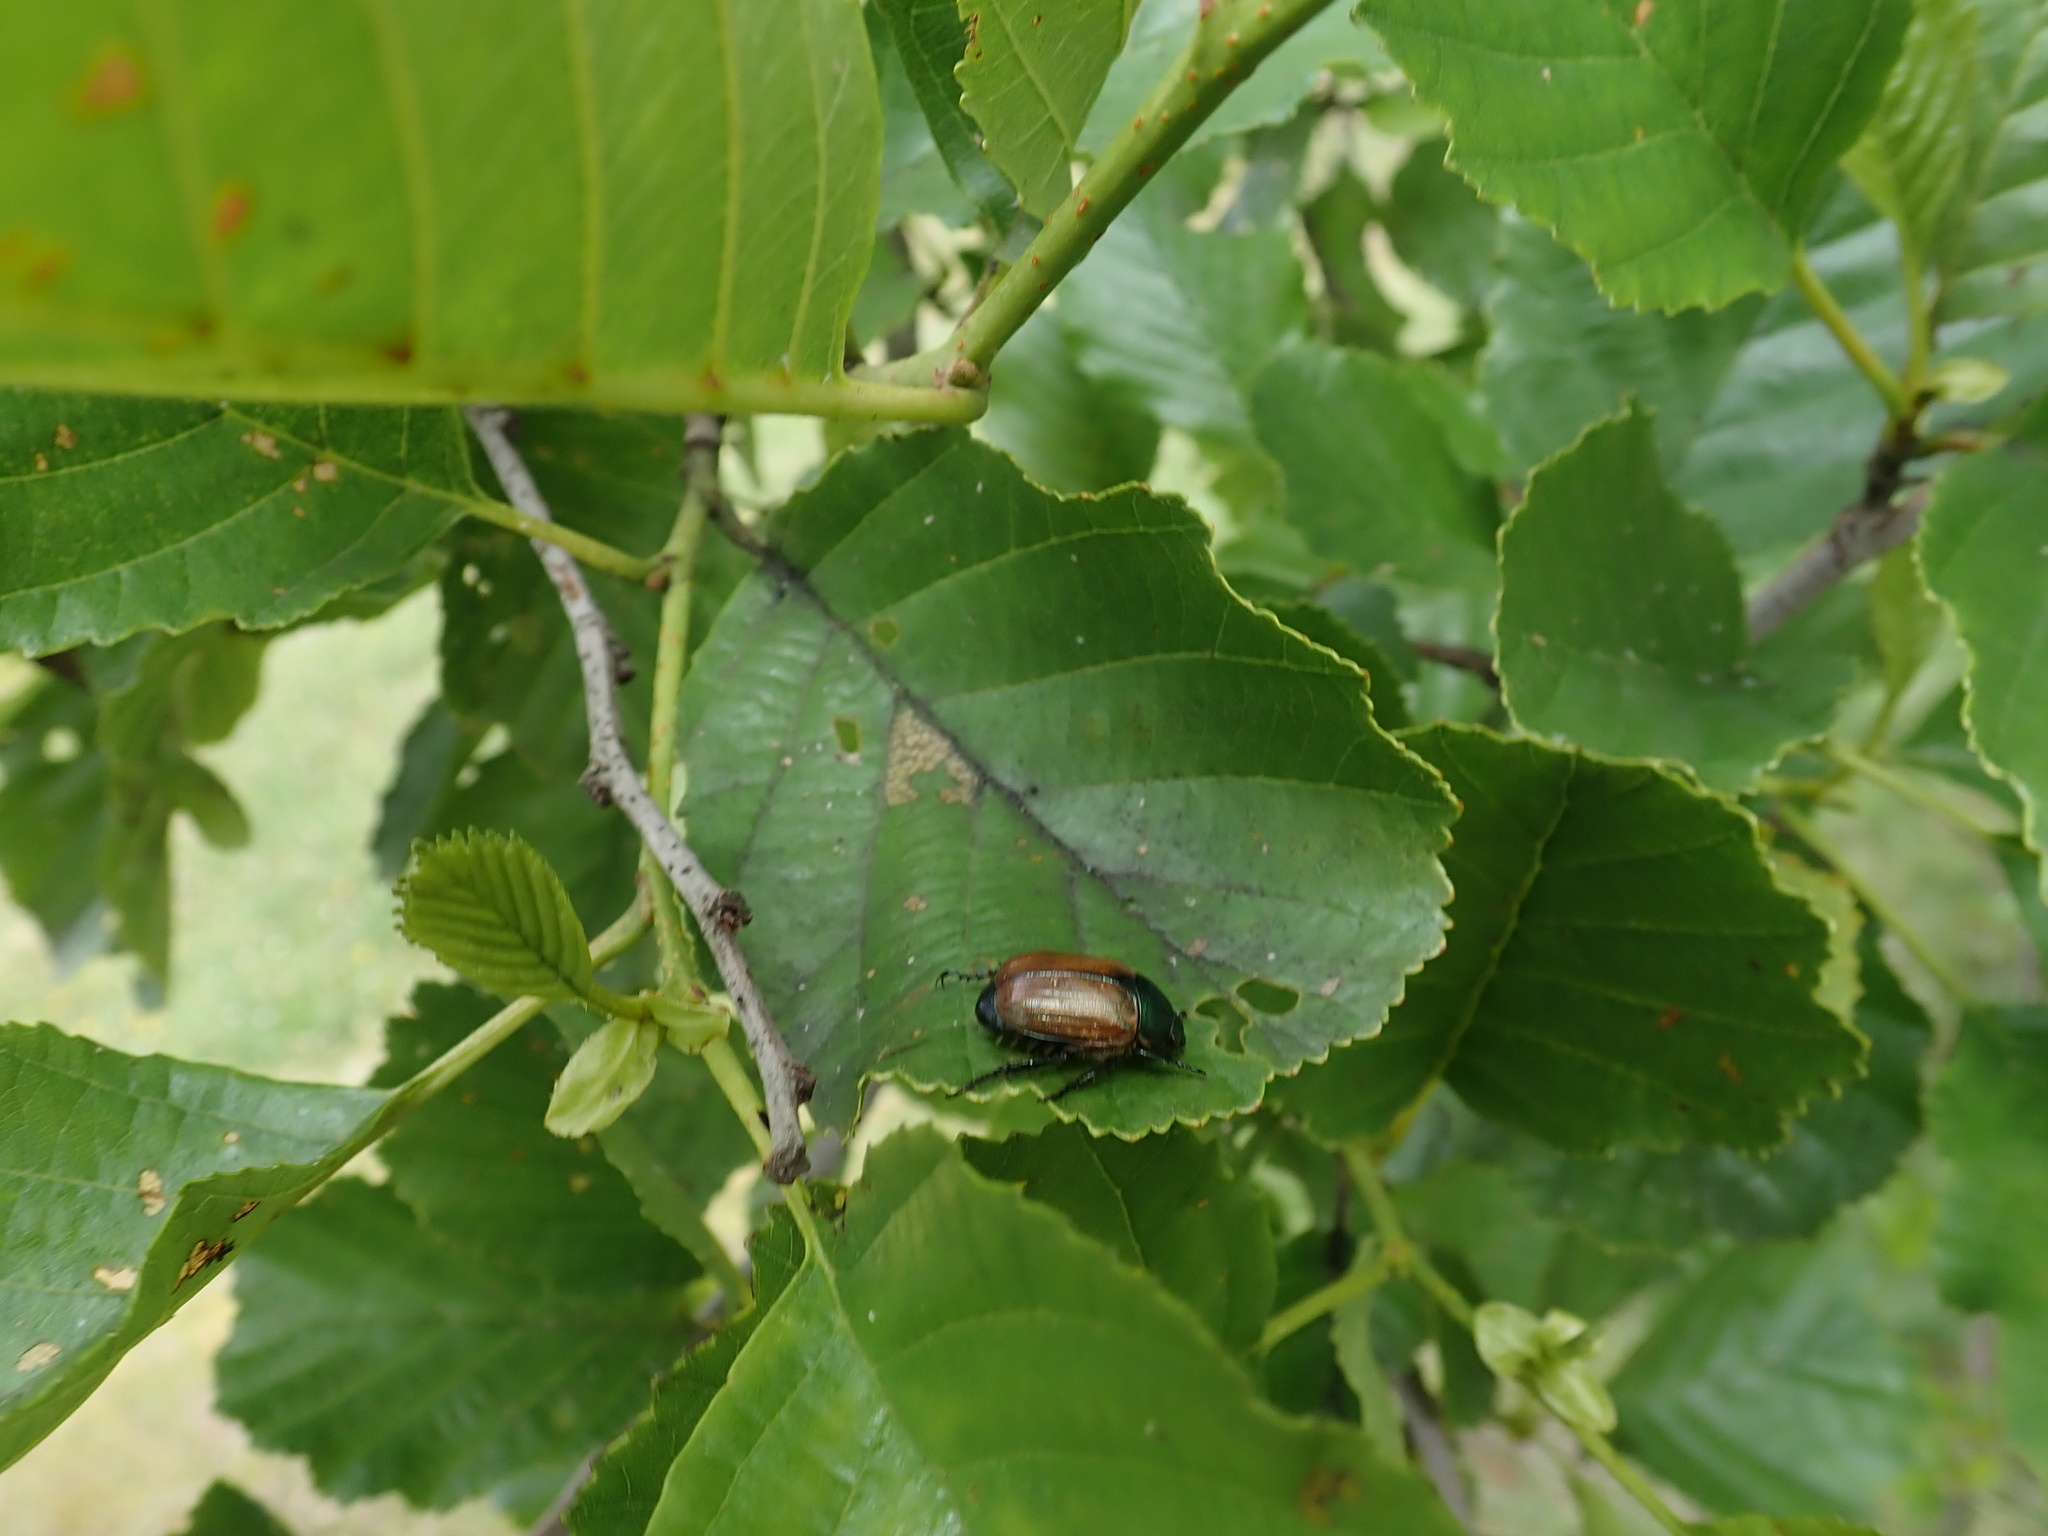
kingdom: Animalia
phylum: Arthropoda
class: Insecta
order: Coleoptera
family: Scarabaeidae
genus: Anomala
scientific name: Anomala dubia
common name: Dune chafer
